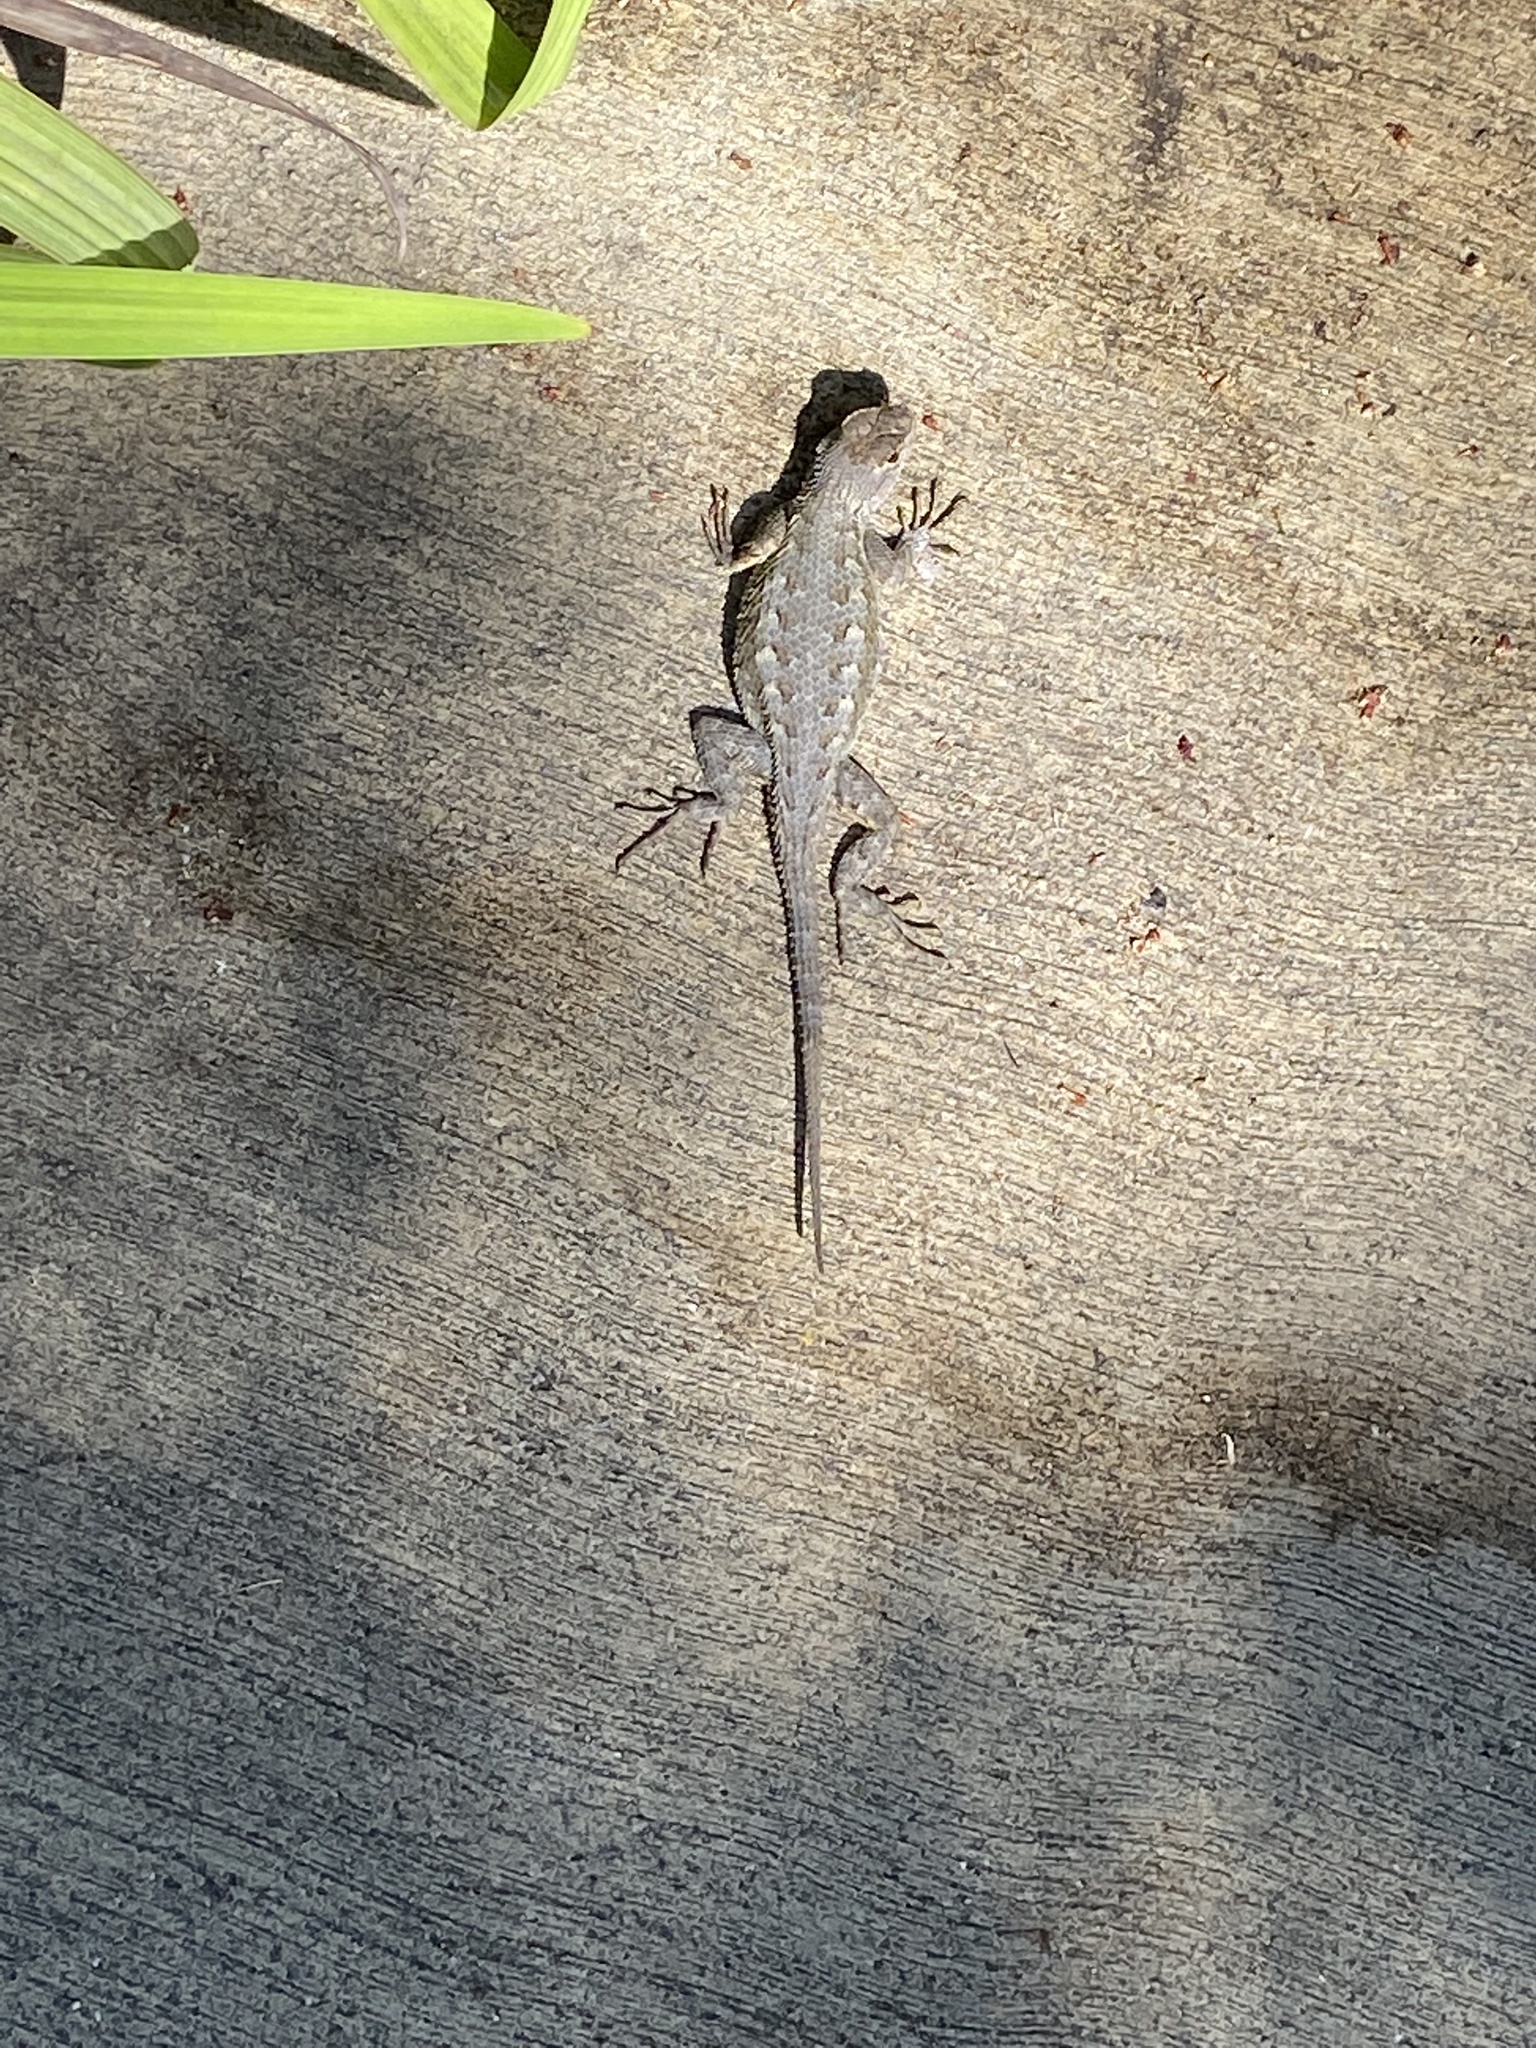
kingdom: Animalia
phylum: Chordata
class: Squamata
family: Phrynosomatidae
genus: Sceloporus
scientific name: Sceloporus occidentalis
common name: Western fence lizard
